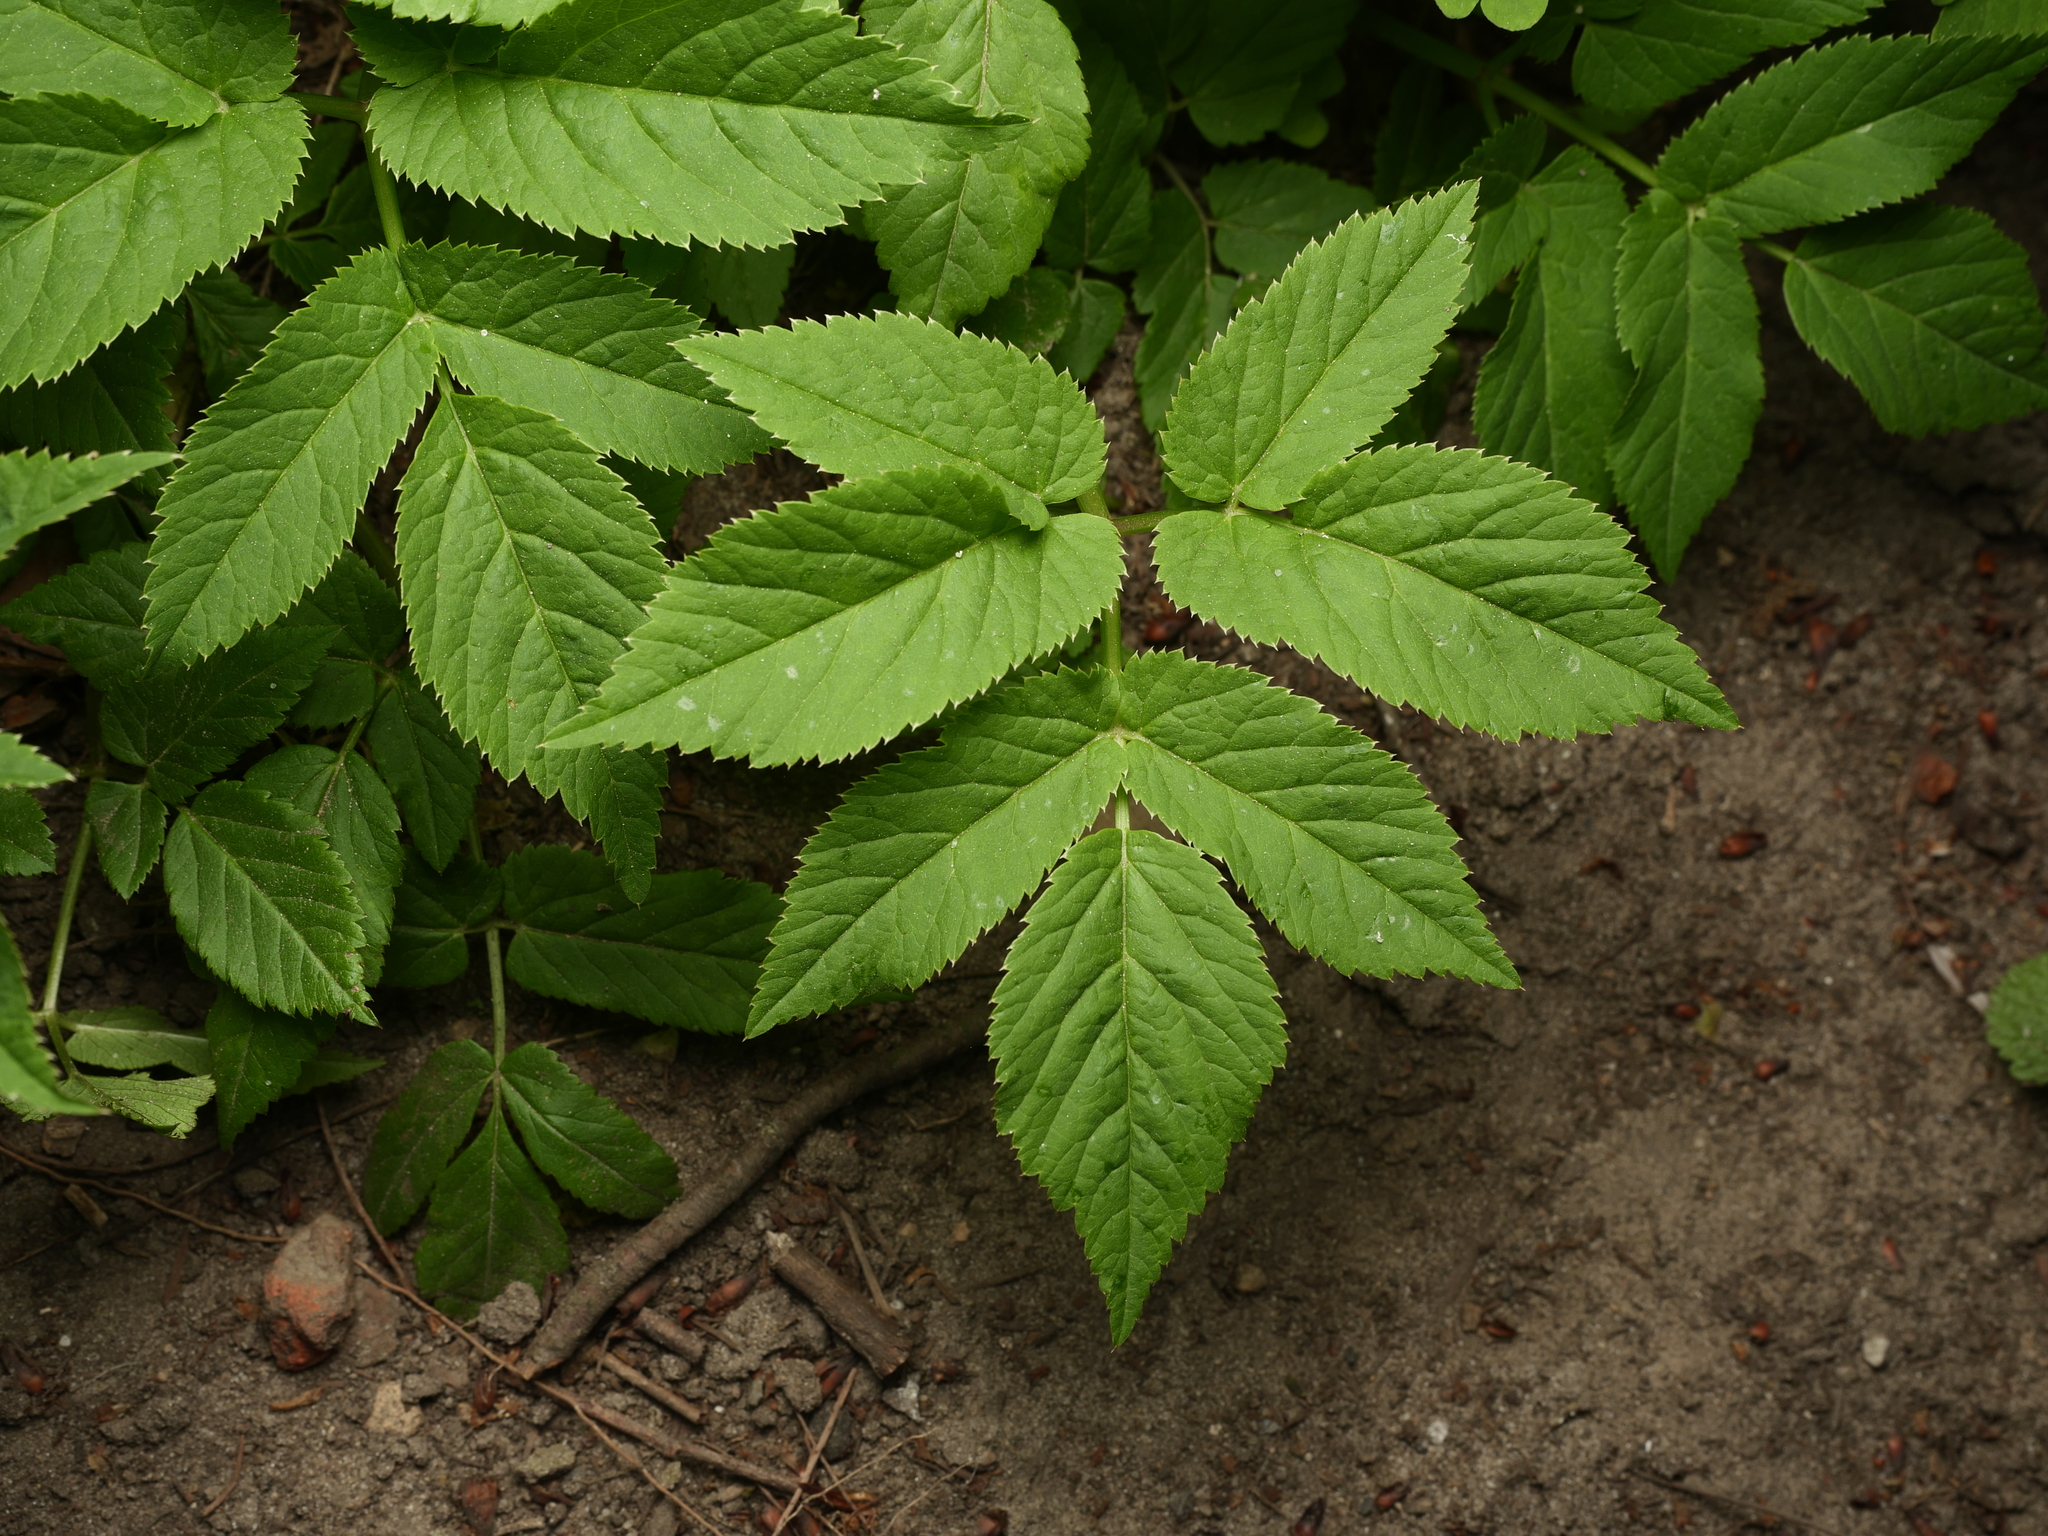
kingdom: Plantae
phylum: Tracheophyta
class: Magnoliopsida
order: Apiales
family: Apiaceae
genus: Aegopodium
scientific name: Aegopodium podagraria
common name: Ground-elder
